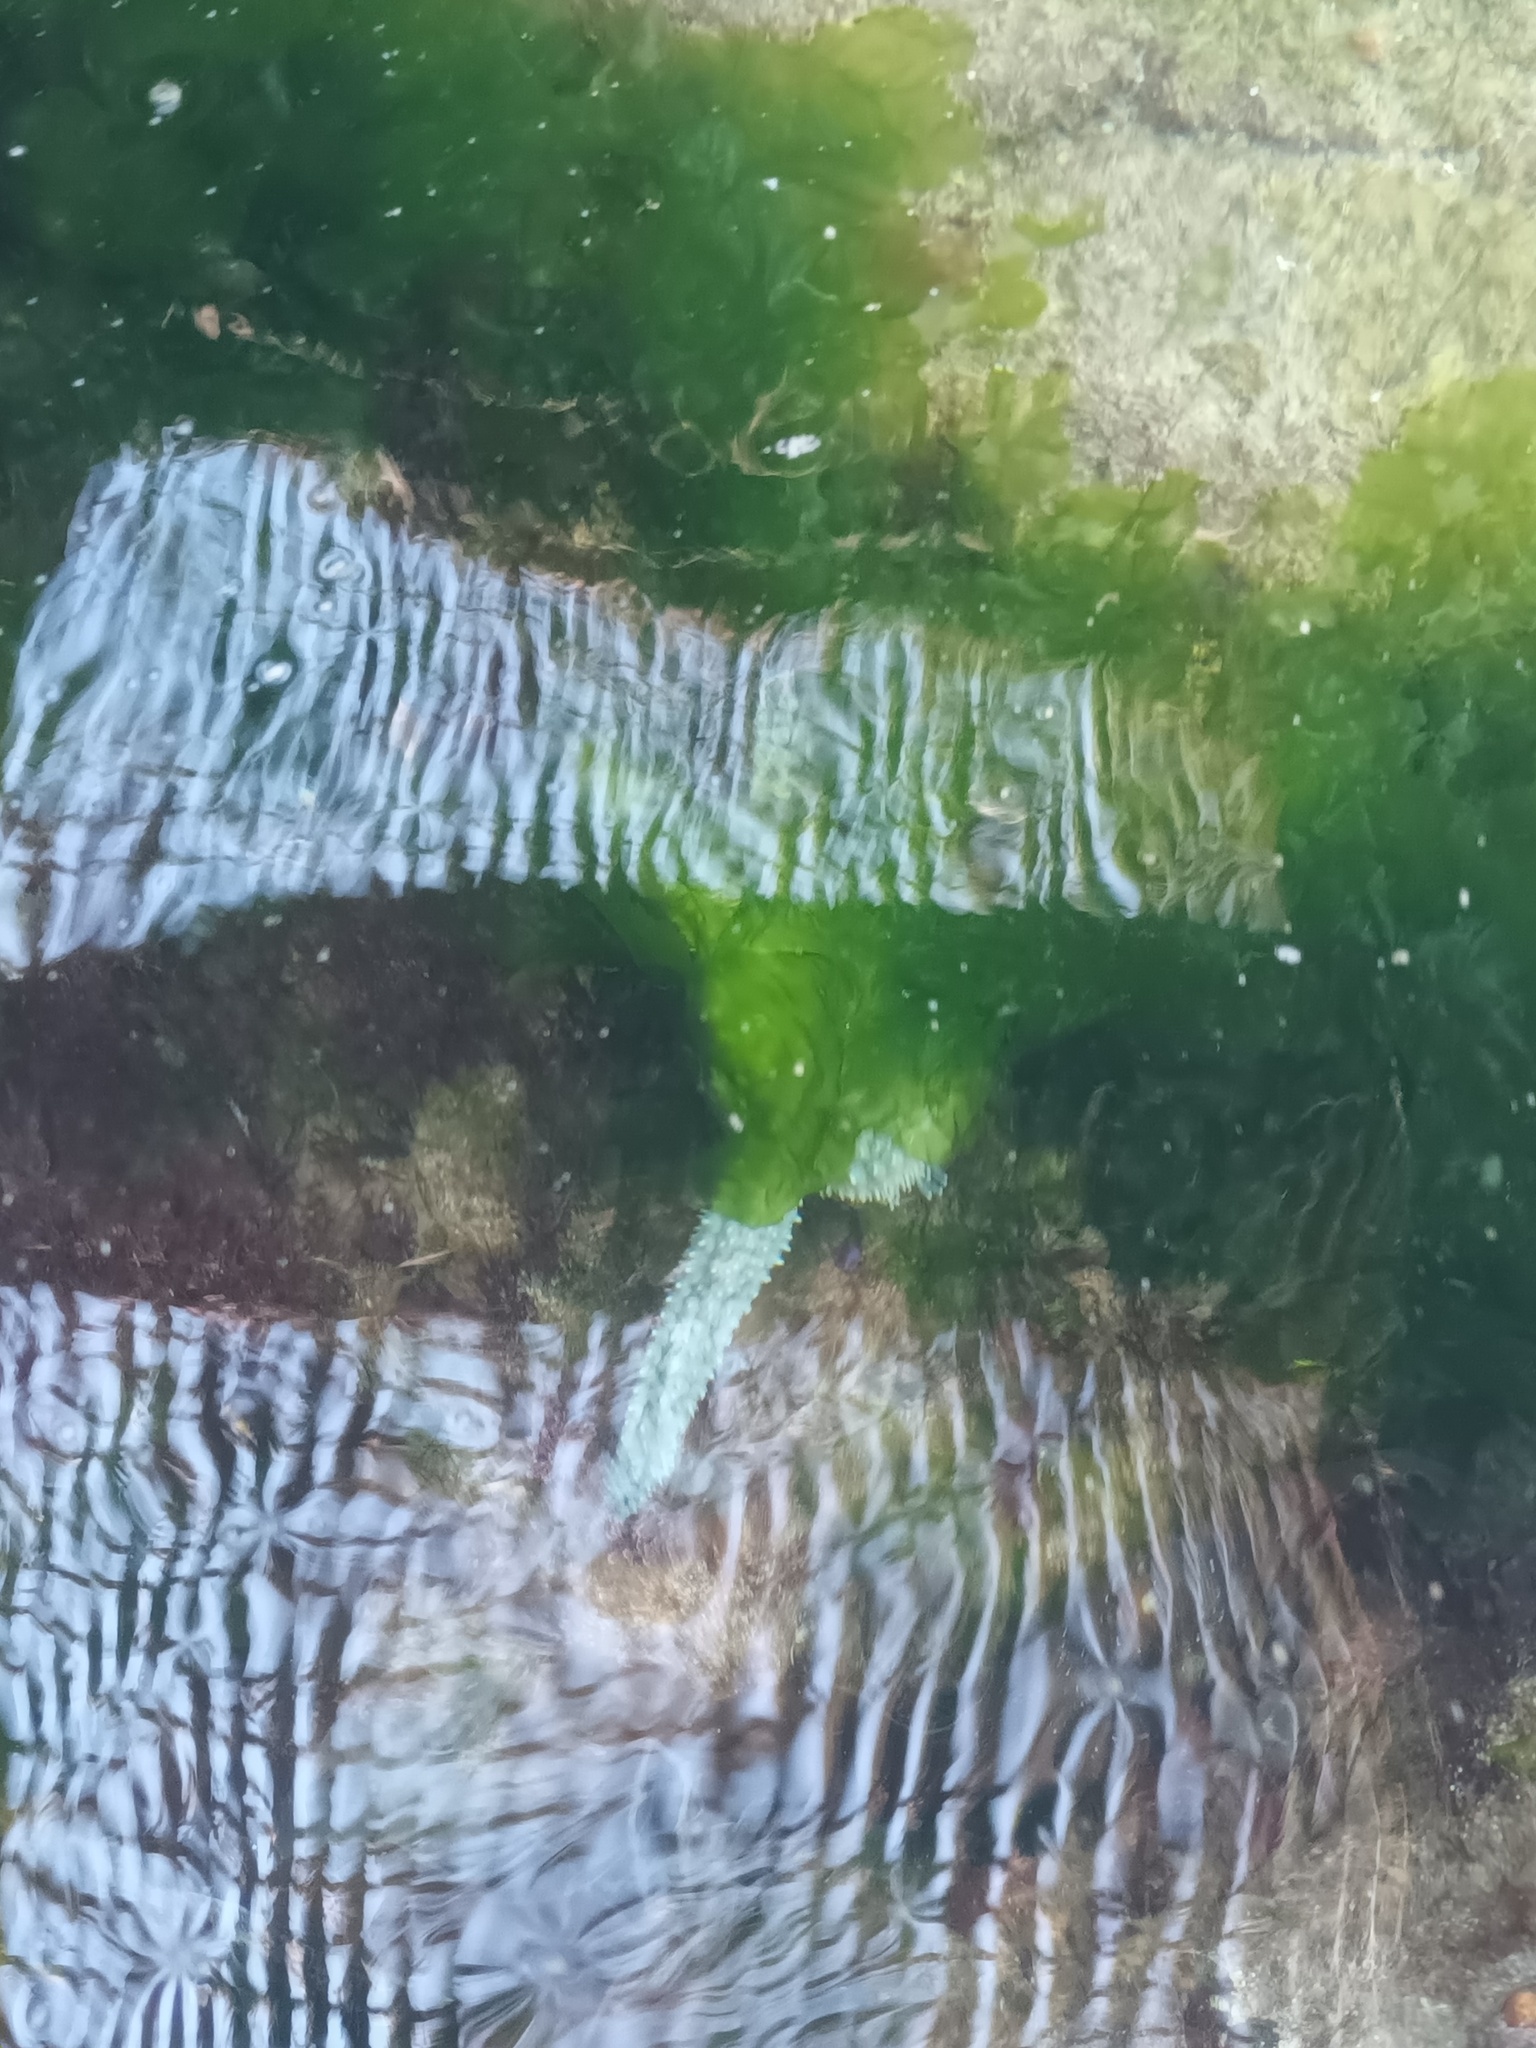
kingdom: Animalia
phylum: Echinodermata
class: Asteroidea
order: Forcipulatida
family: Asteriidae
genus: Marthasterias
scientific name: Marthasterias glacialis
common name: Spiny starfish
